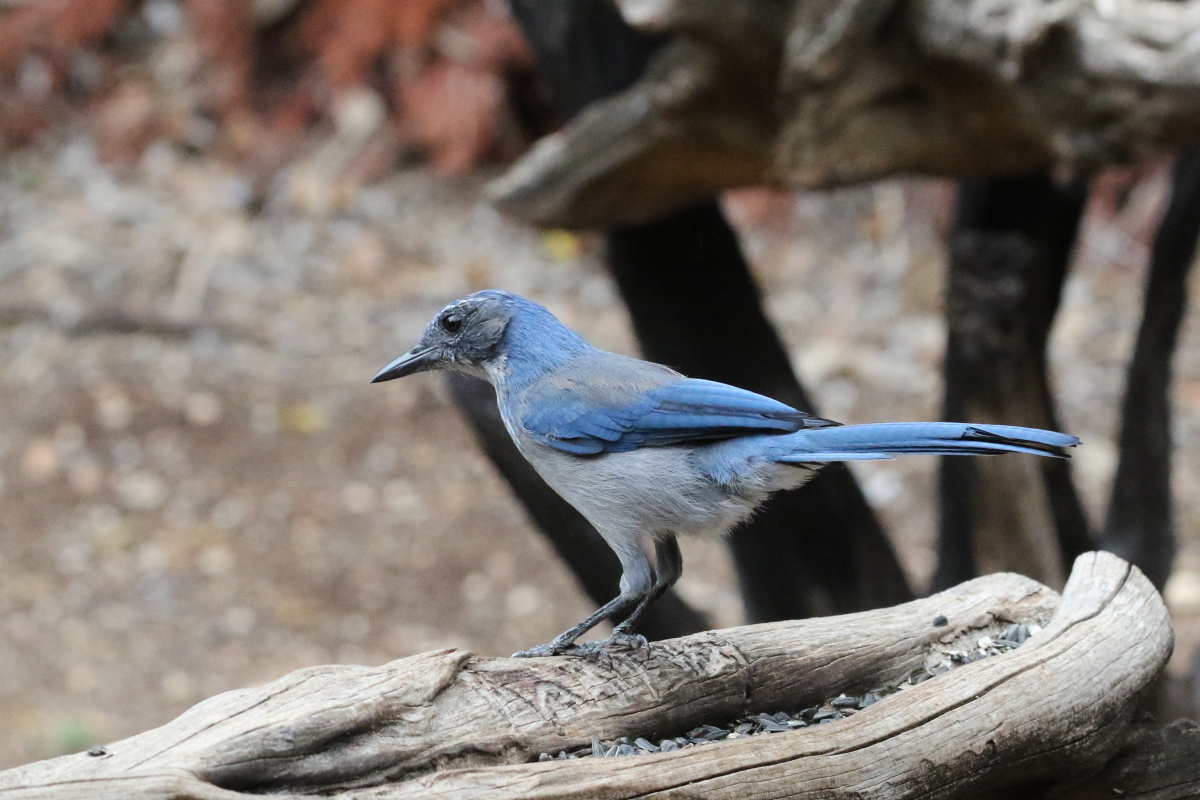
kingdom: Animalia
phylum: Chordata
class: Aves
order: Passeriformes
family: Corvidae
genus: Aphelocoma
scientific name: Aphelocoma woodhouseii
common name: Woodhouse's scrub-jay
